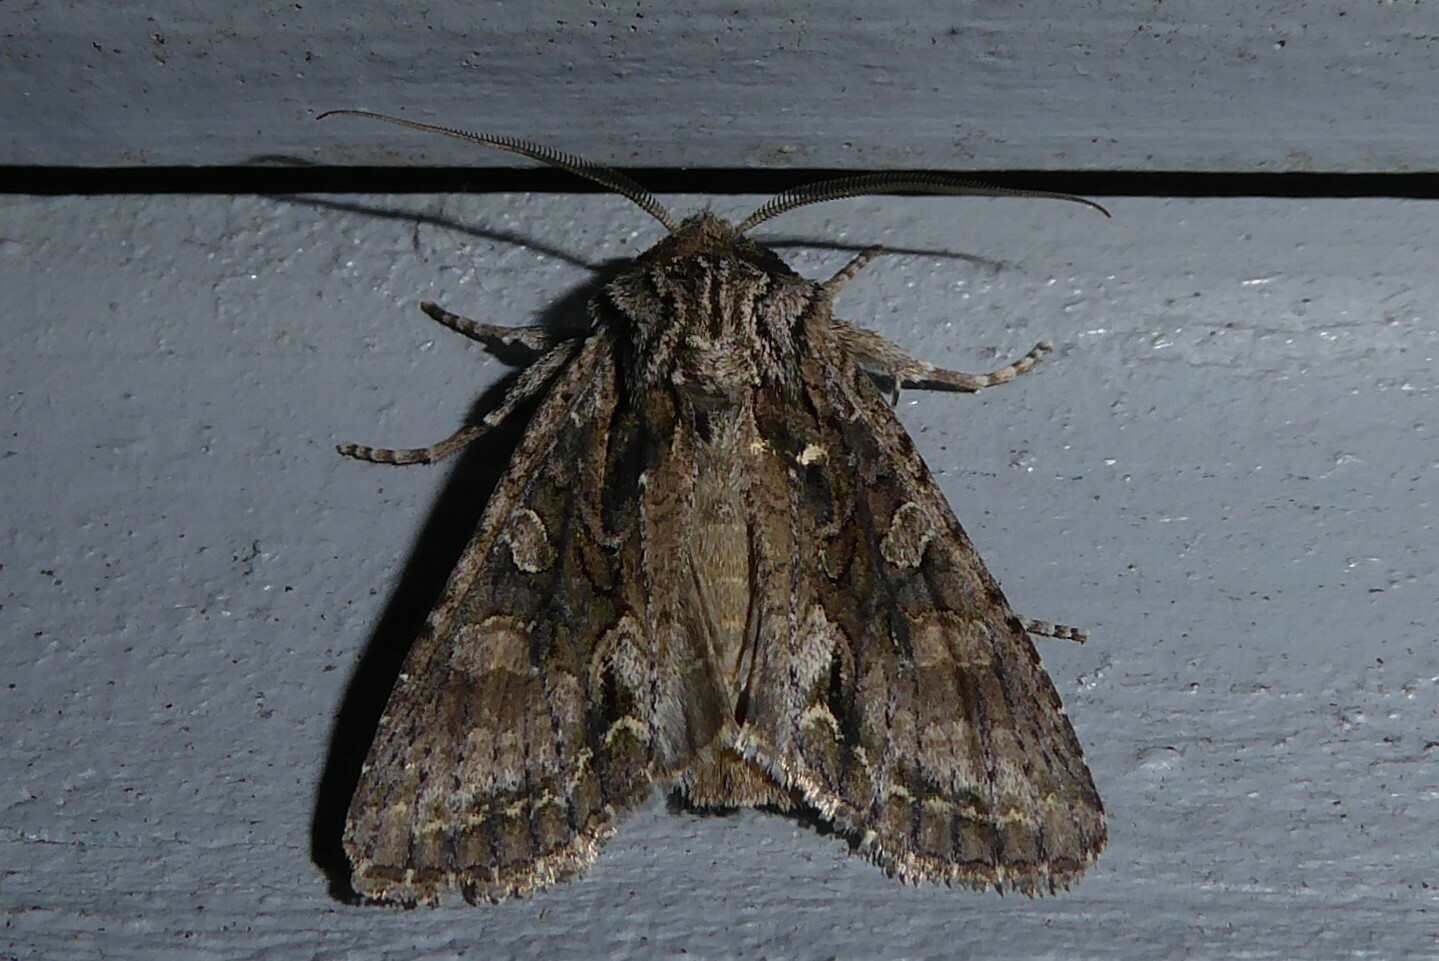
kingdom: Animalia
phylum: Arthropoda
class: Insecta
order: Lepidoptera
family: Noctuidae
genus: Ichneutica
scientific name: Ichneutica mutans
